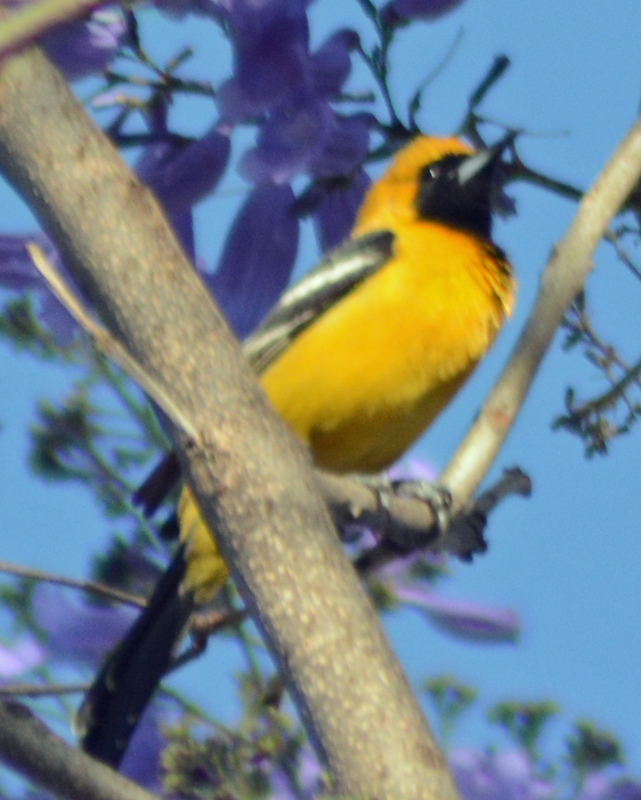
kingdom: Animalia
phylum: Chordata
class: Aves
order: Passeriformes
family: Icteridae
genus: Icterus
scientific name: Icterus cucullatus
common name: Hooded oriole
